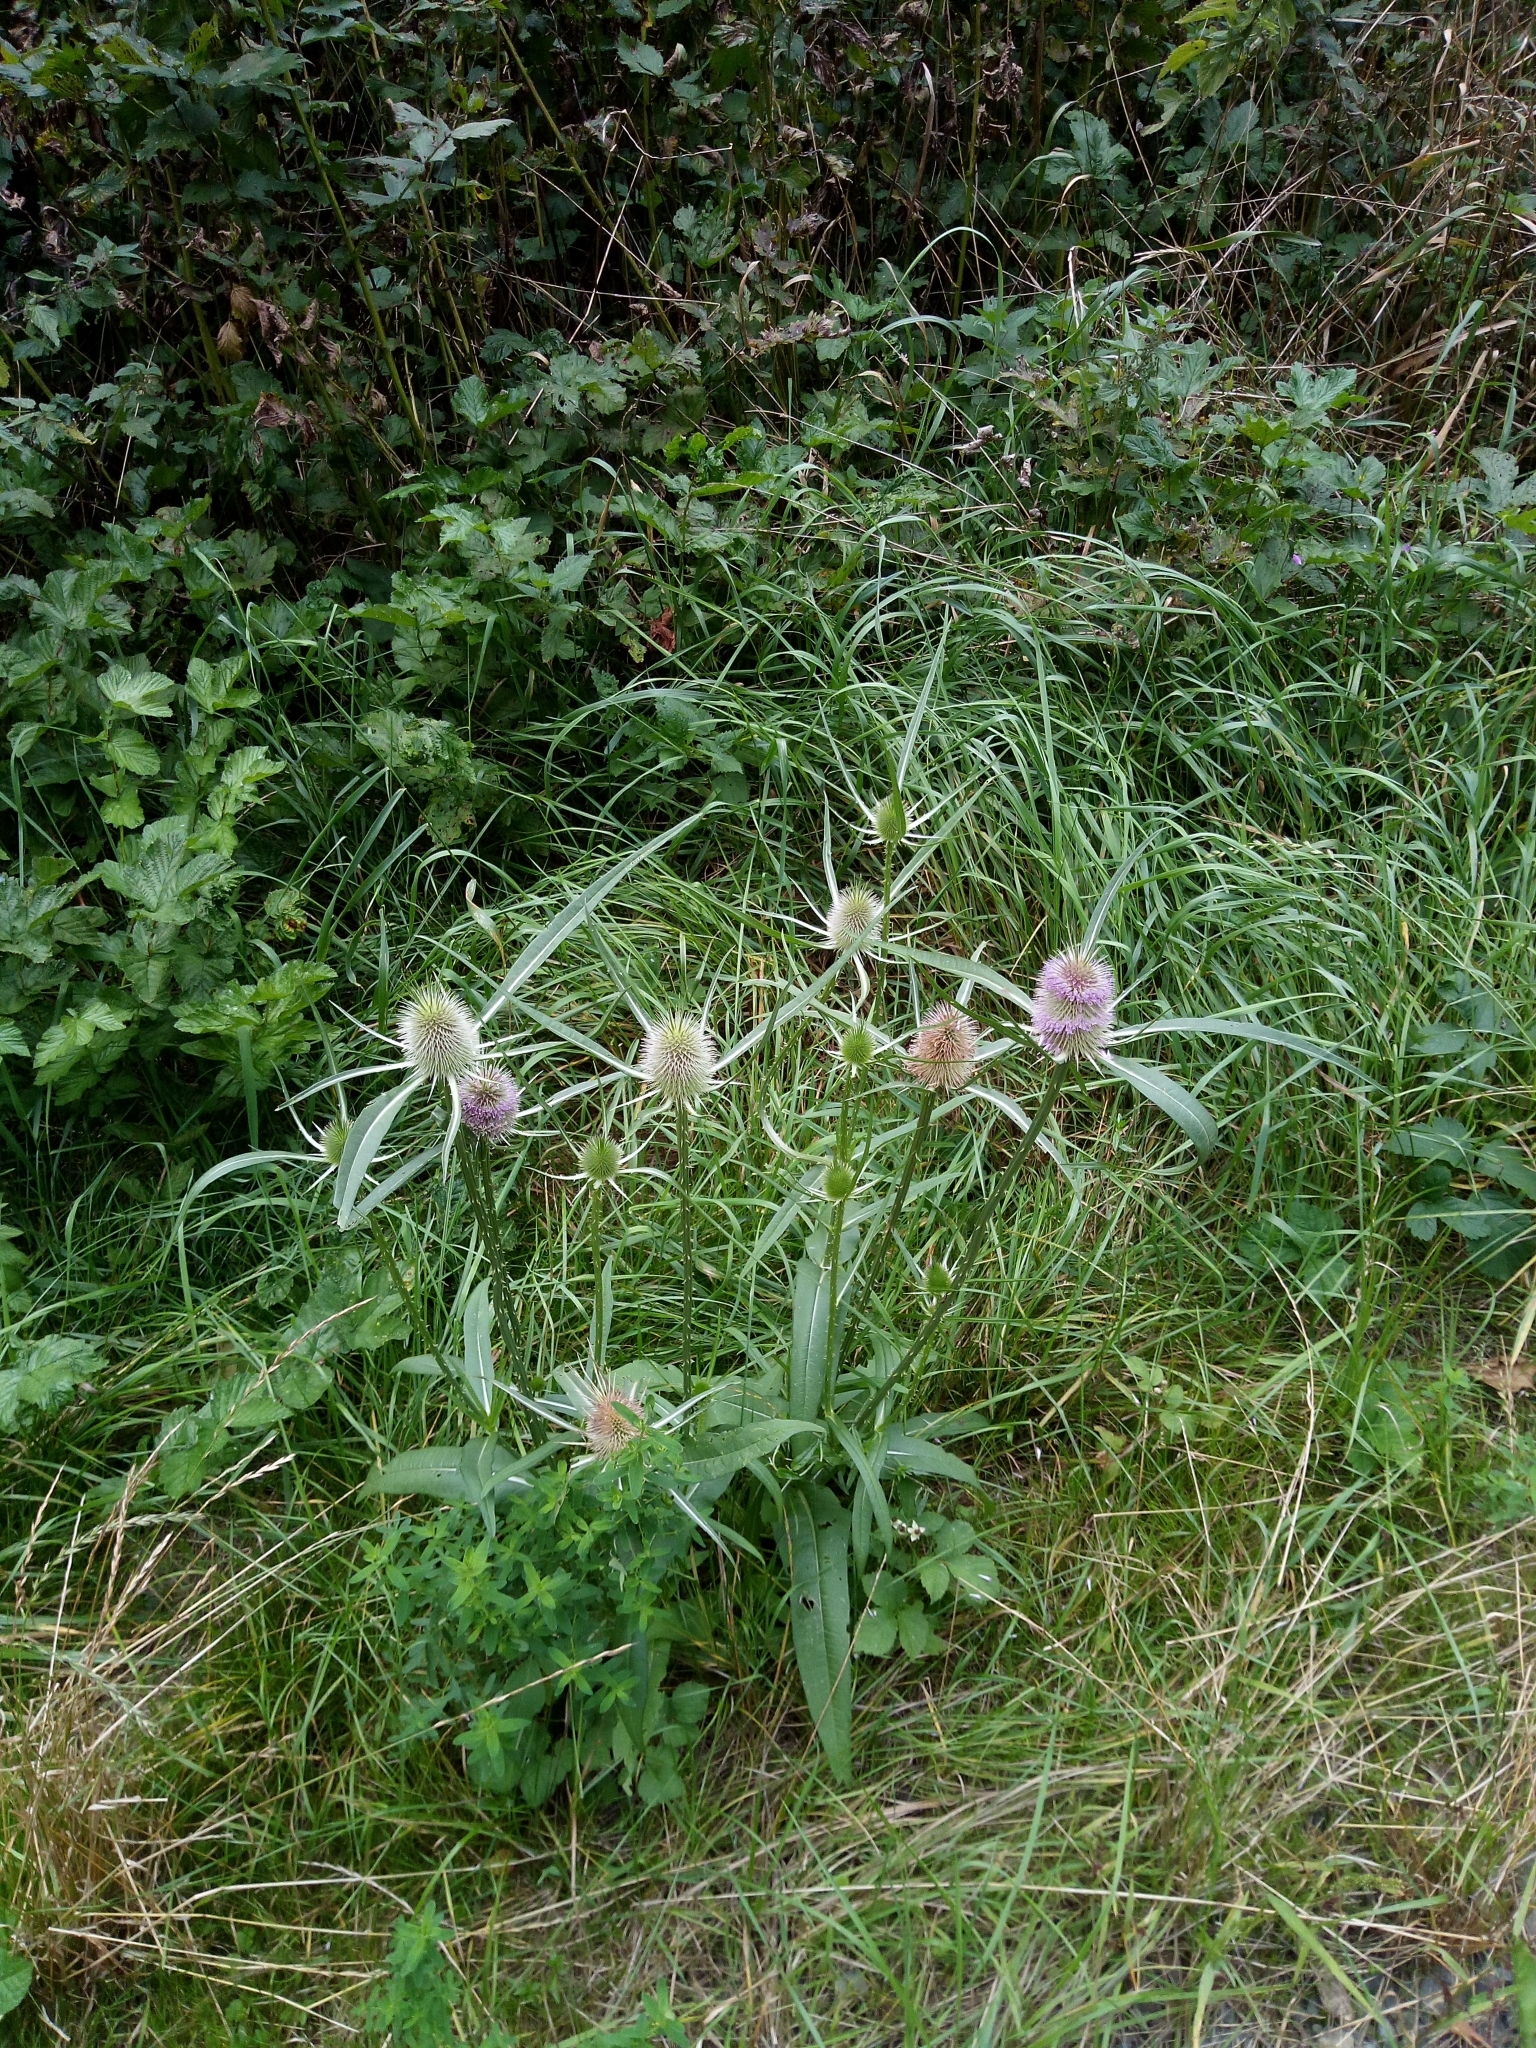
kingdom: Plantae
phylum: Tracheophyta
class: Magnoliopsida
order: Dipsacales
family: Caprifoliaceae
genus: Dipsacus
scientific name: Dipsacus fullonum
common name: Teasel
